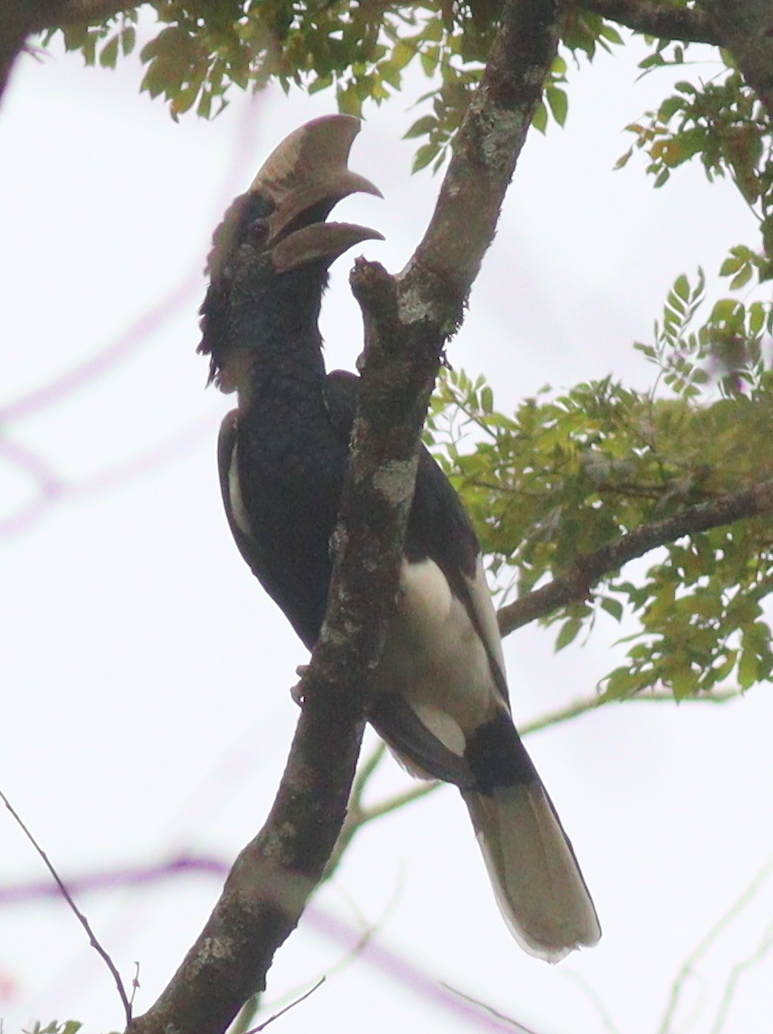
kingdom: Animalia
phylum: Chordata
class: Aves
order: Bucerotiformes
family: Bucerotidae
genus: Bycanistes
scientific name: Bycanistes subcylindricus
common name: Black-and-white-casqued hornbill
